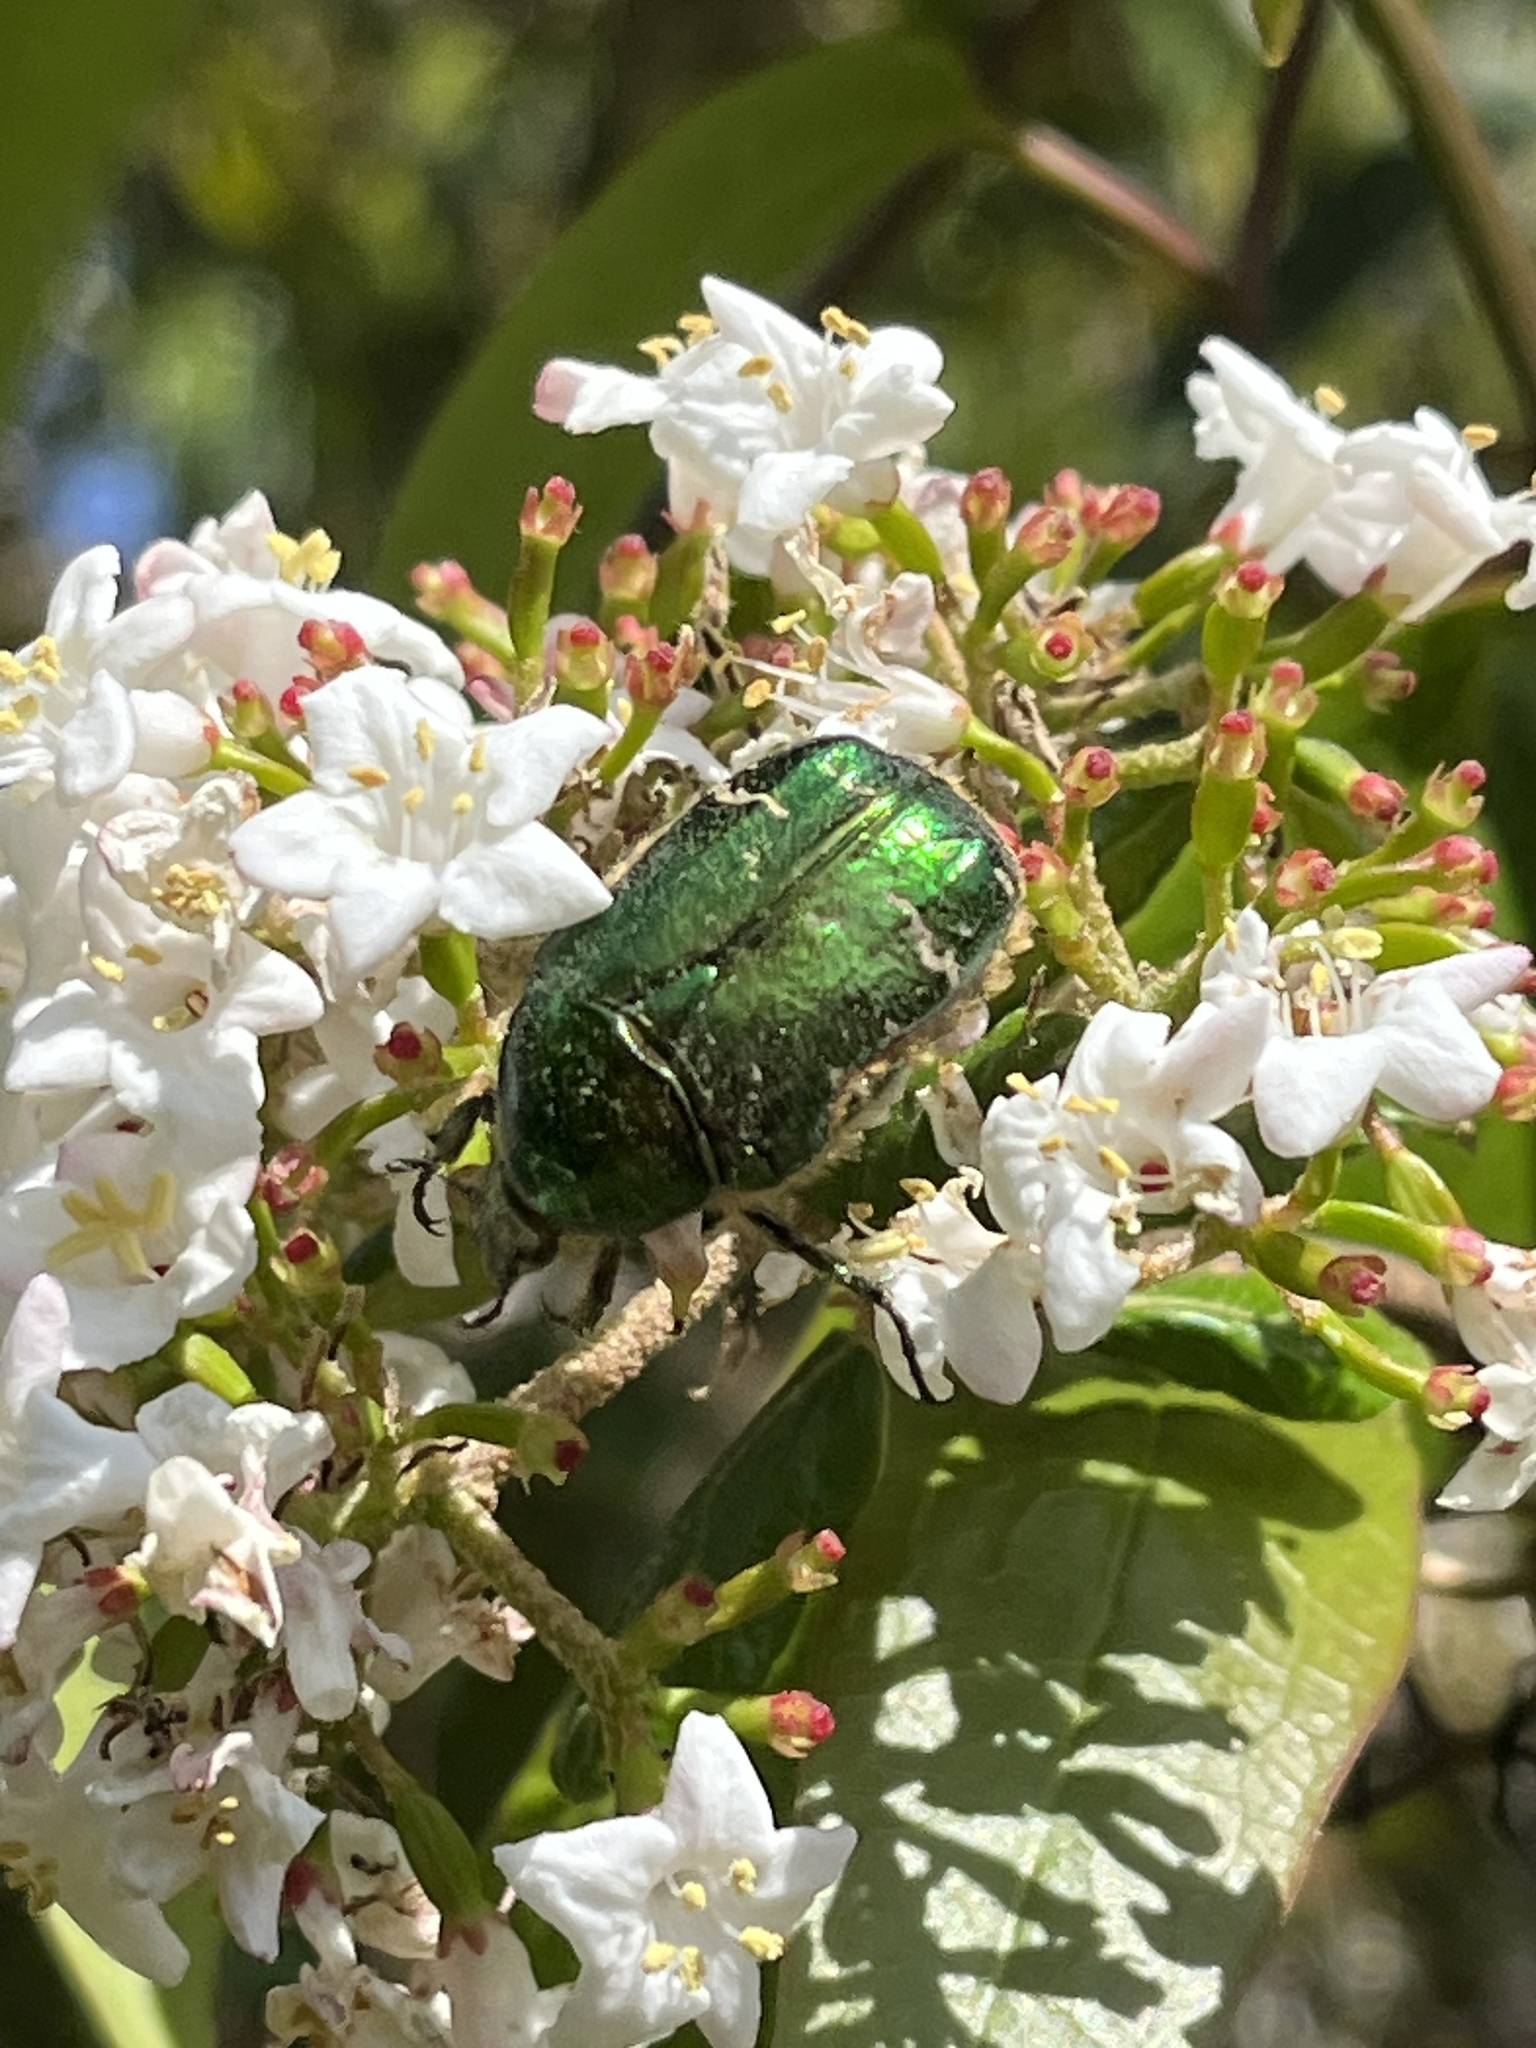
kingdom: Animalia
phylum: Arthropoda
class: Insecta
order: Coleoptera
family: Scarabaeidae
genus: Cetonia
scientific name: Cetonia aurata
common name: Rose chafer
